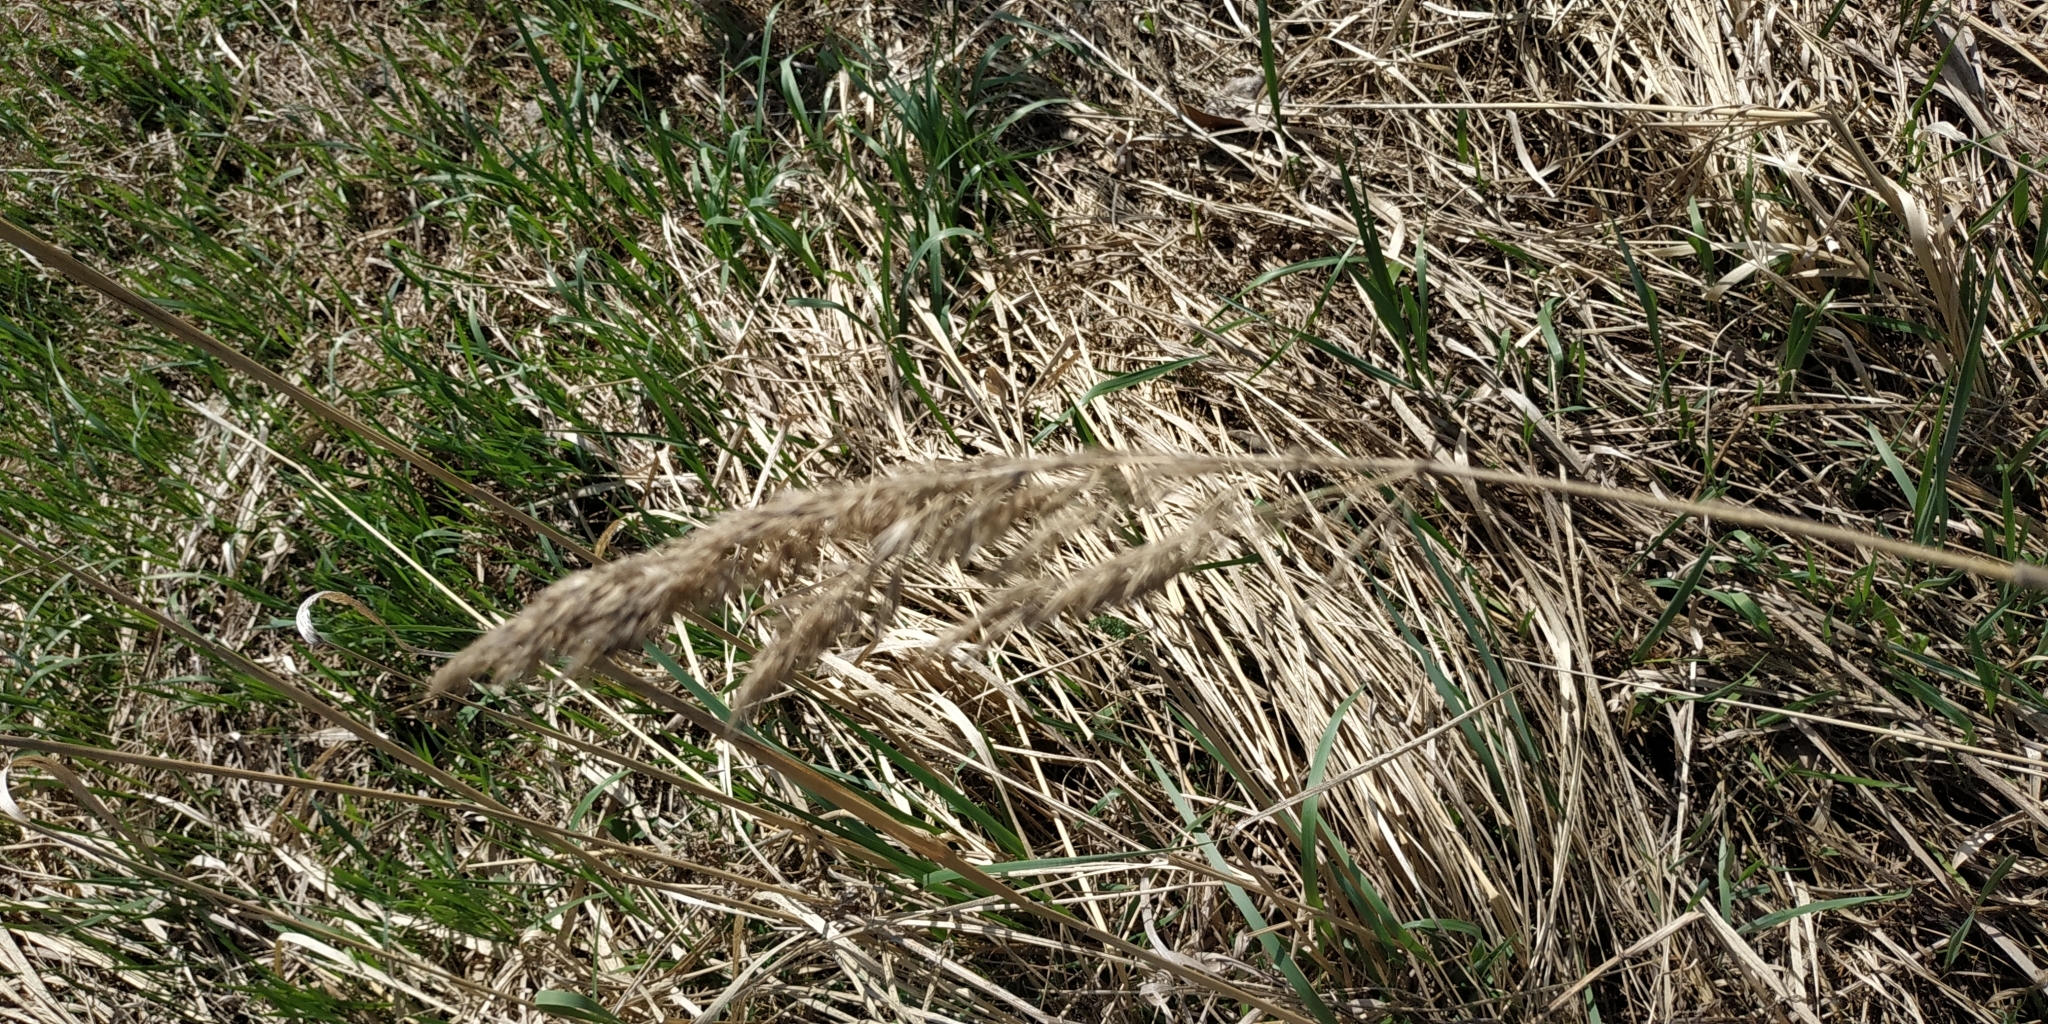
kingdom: Plantae
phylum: Tracheophyta
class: Liliopsida
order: Poales
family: Poaceae
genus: Calamagrostis
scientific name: Calamagrostis epigejos
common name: Wood small-reed
